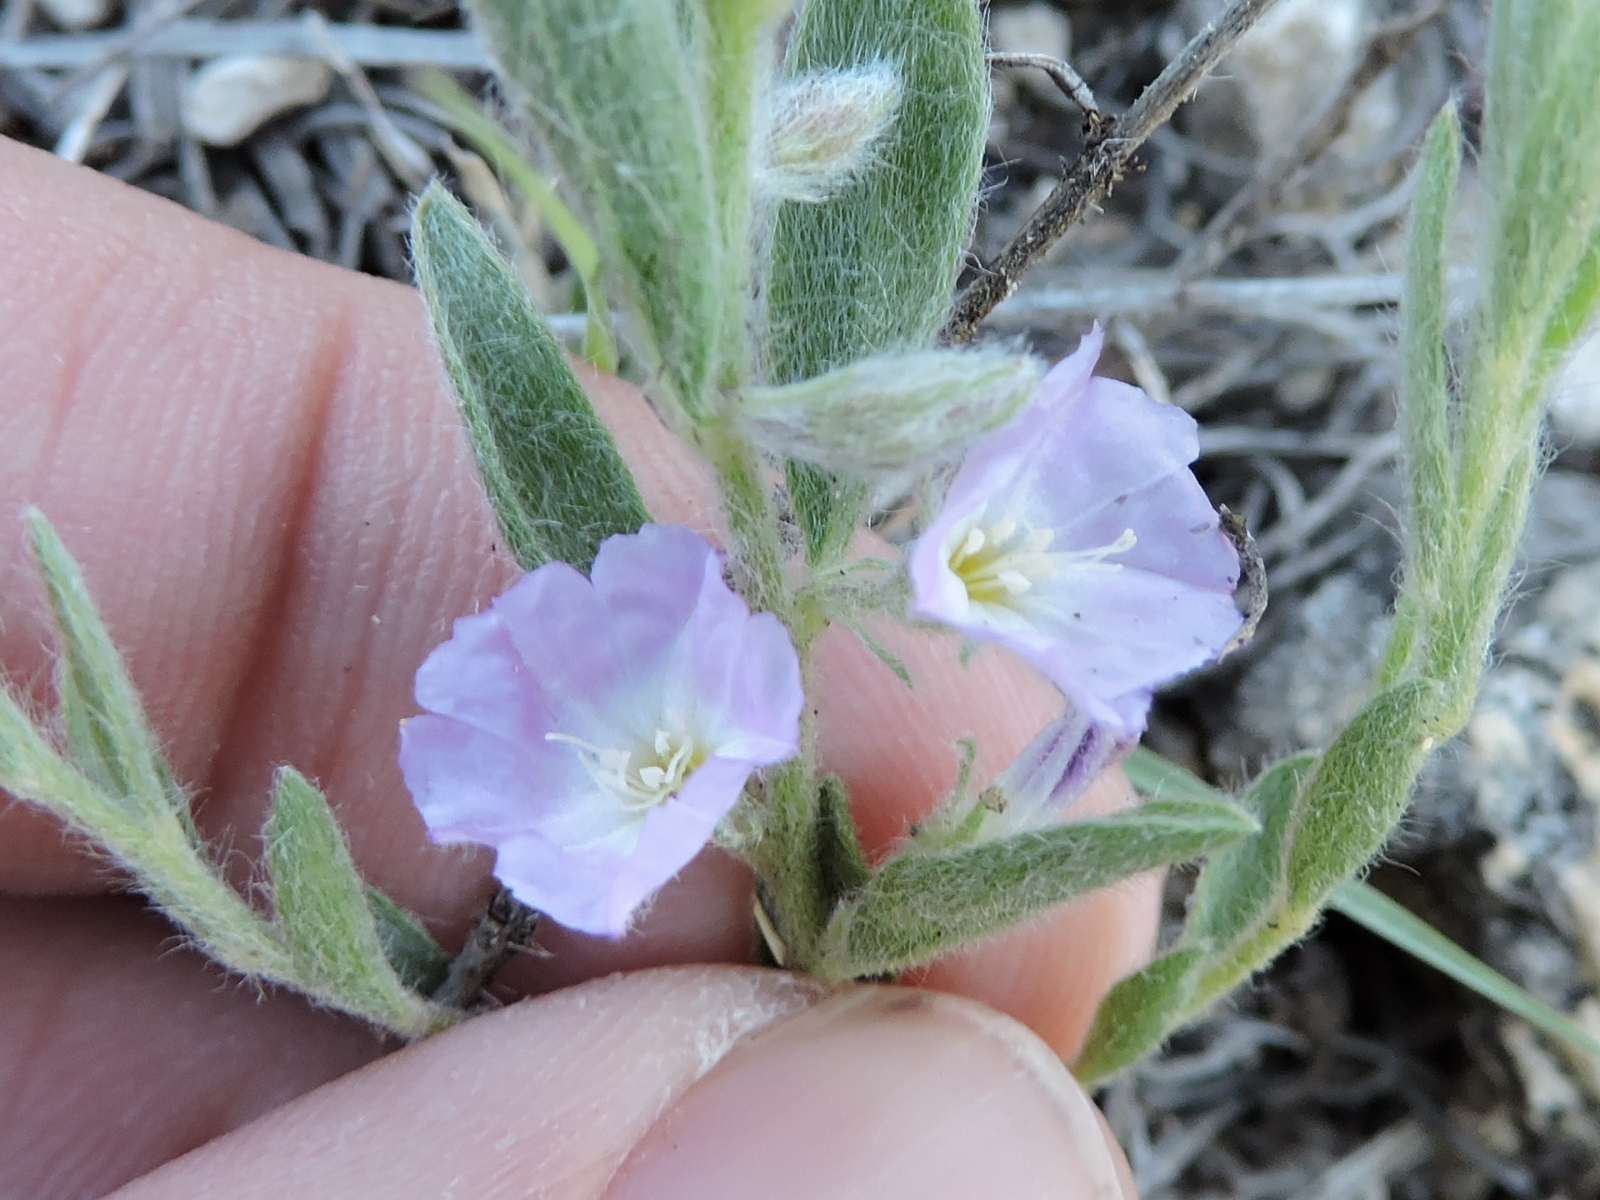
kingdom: Plantae
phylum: Tracheophyta
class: Magnoliopsida
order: Solanales
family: Convolvulaceae
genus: Evolvulus
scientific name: Evolvulus nuttallianus
